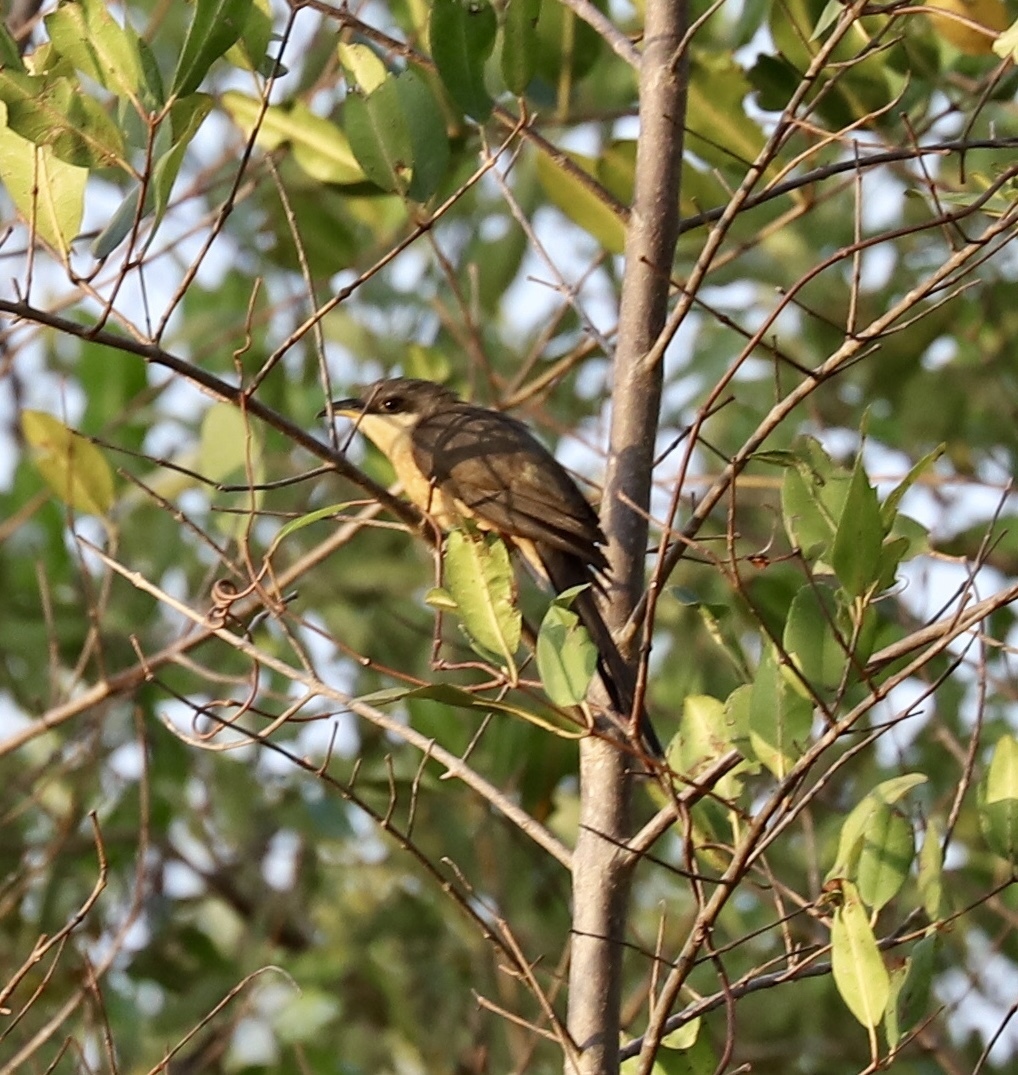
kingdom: Animalia
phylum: Chordata
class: Aves
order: Cuculiformes
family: Cuculidae
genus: Coccyzus
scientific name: Coccyzus minor
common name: Mangrove cuckoo
